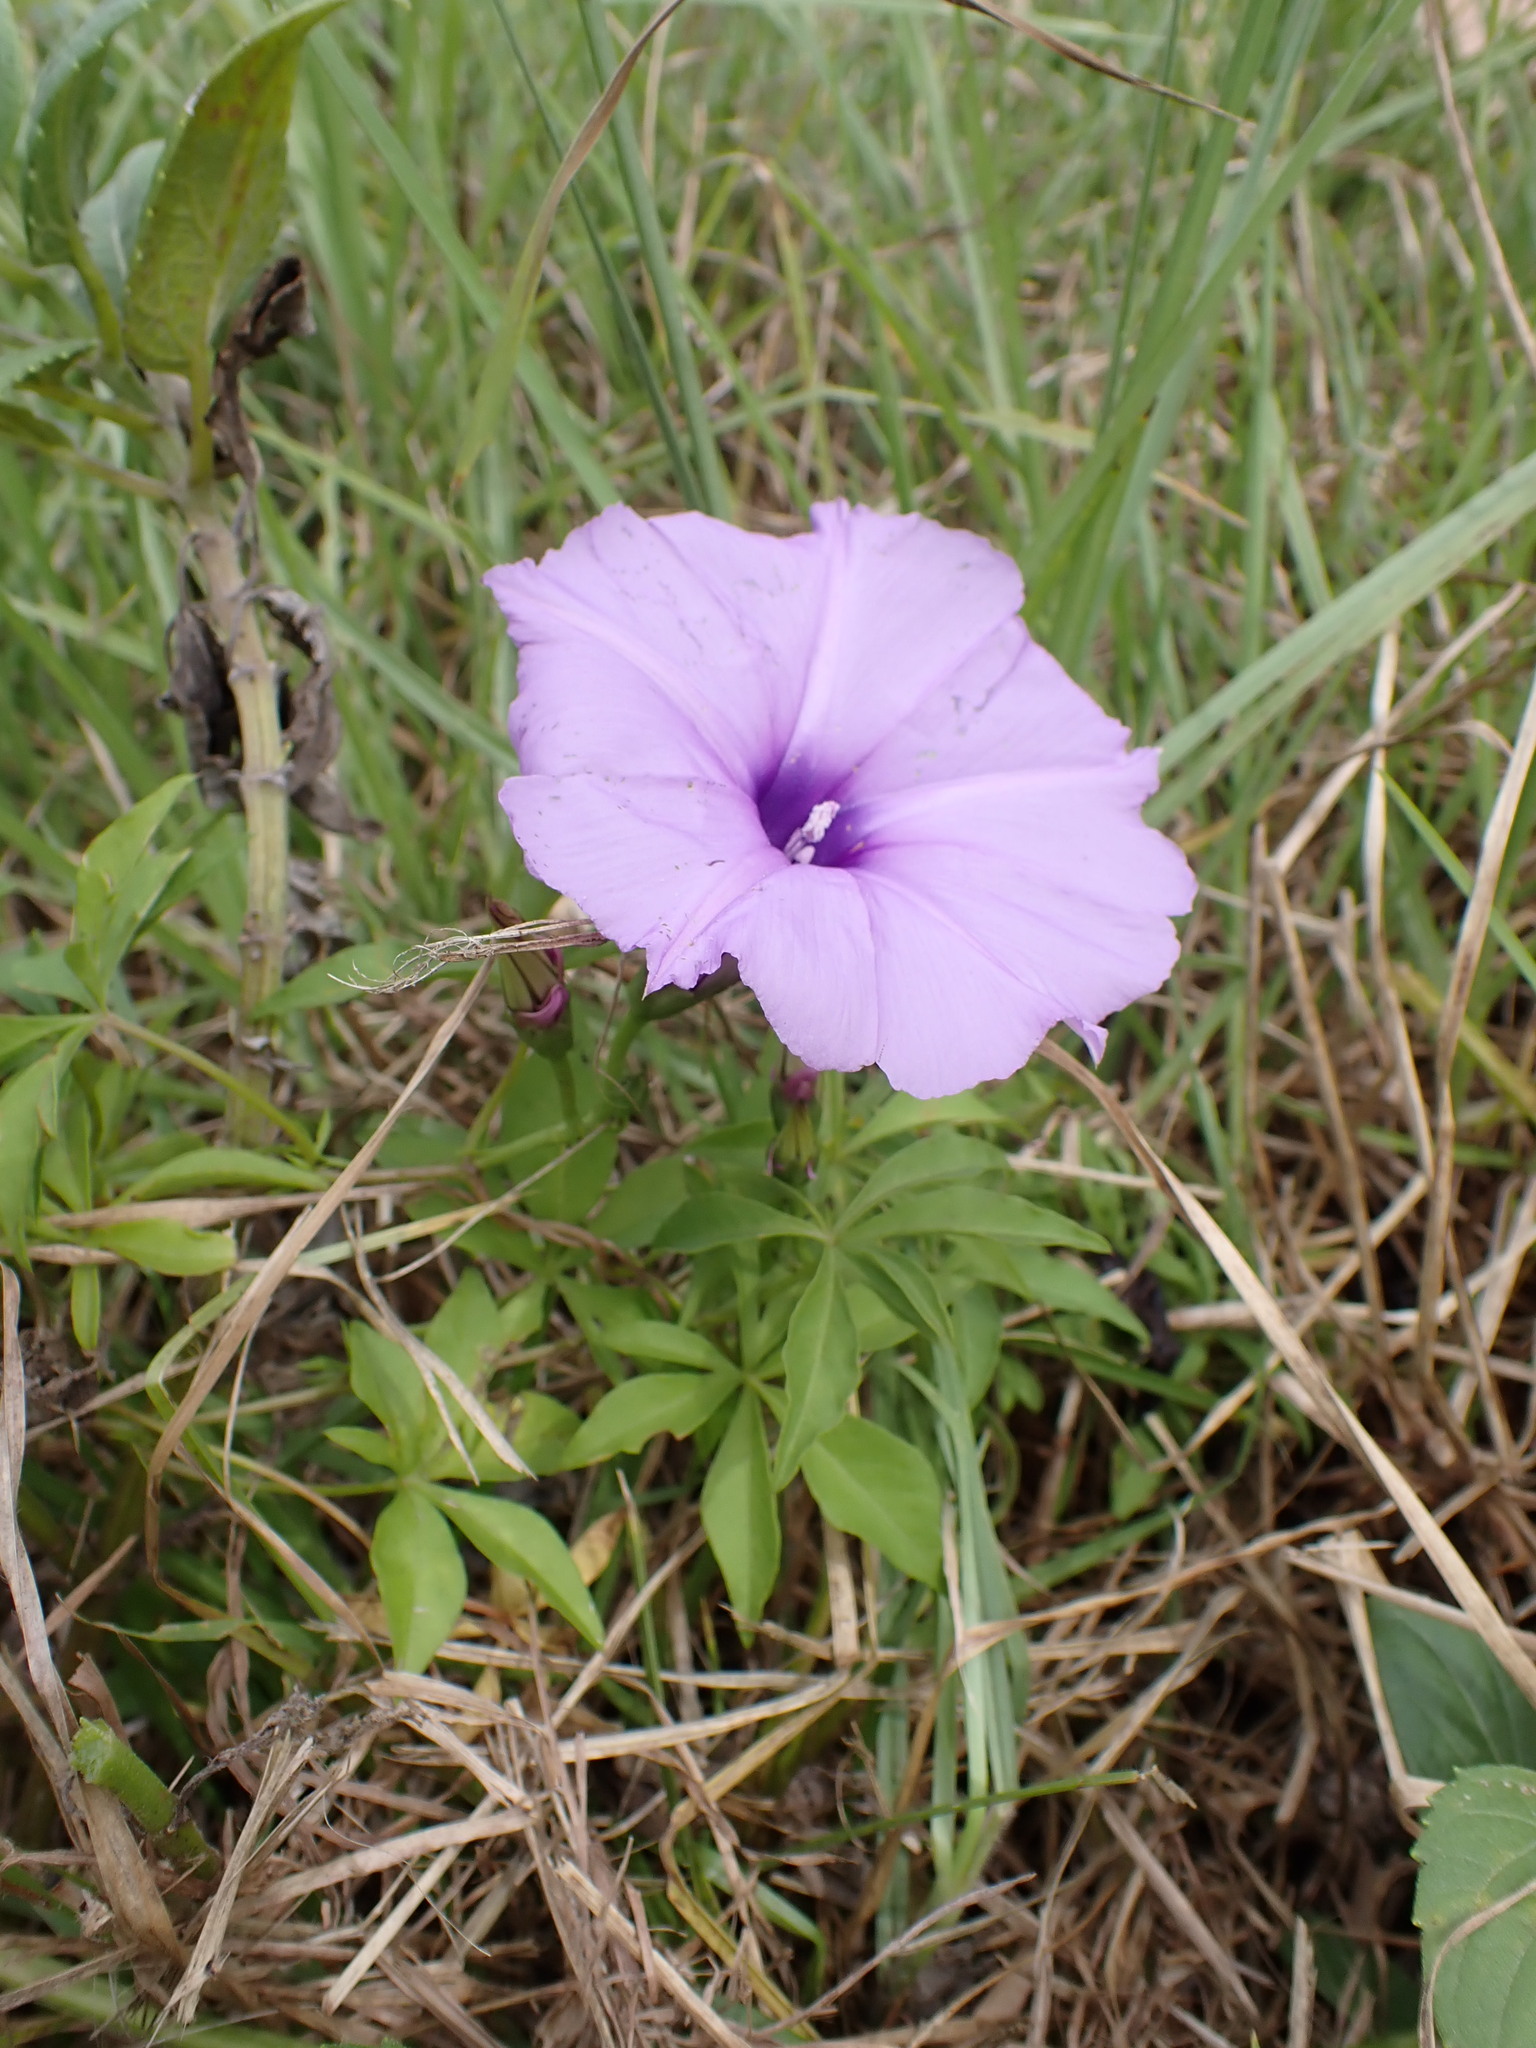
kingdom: Plantae
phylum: Tracheophyta
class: Magnoliopsida
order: Solanales
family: Convolvulaceae
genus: Ipomoea
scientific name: Ipomoea cairica
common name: Mile a minute vine
